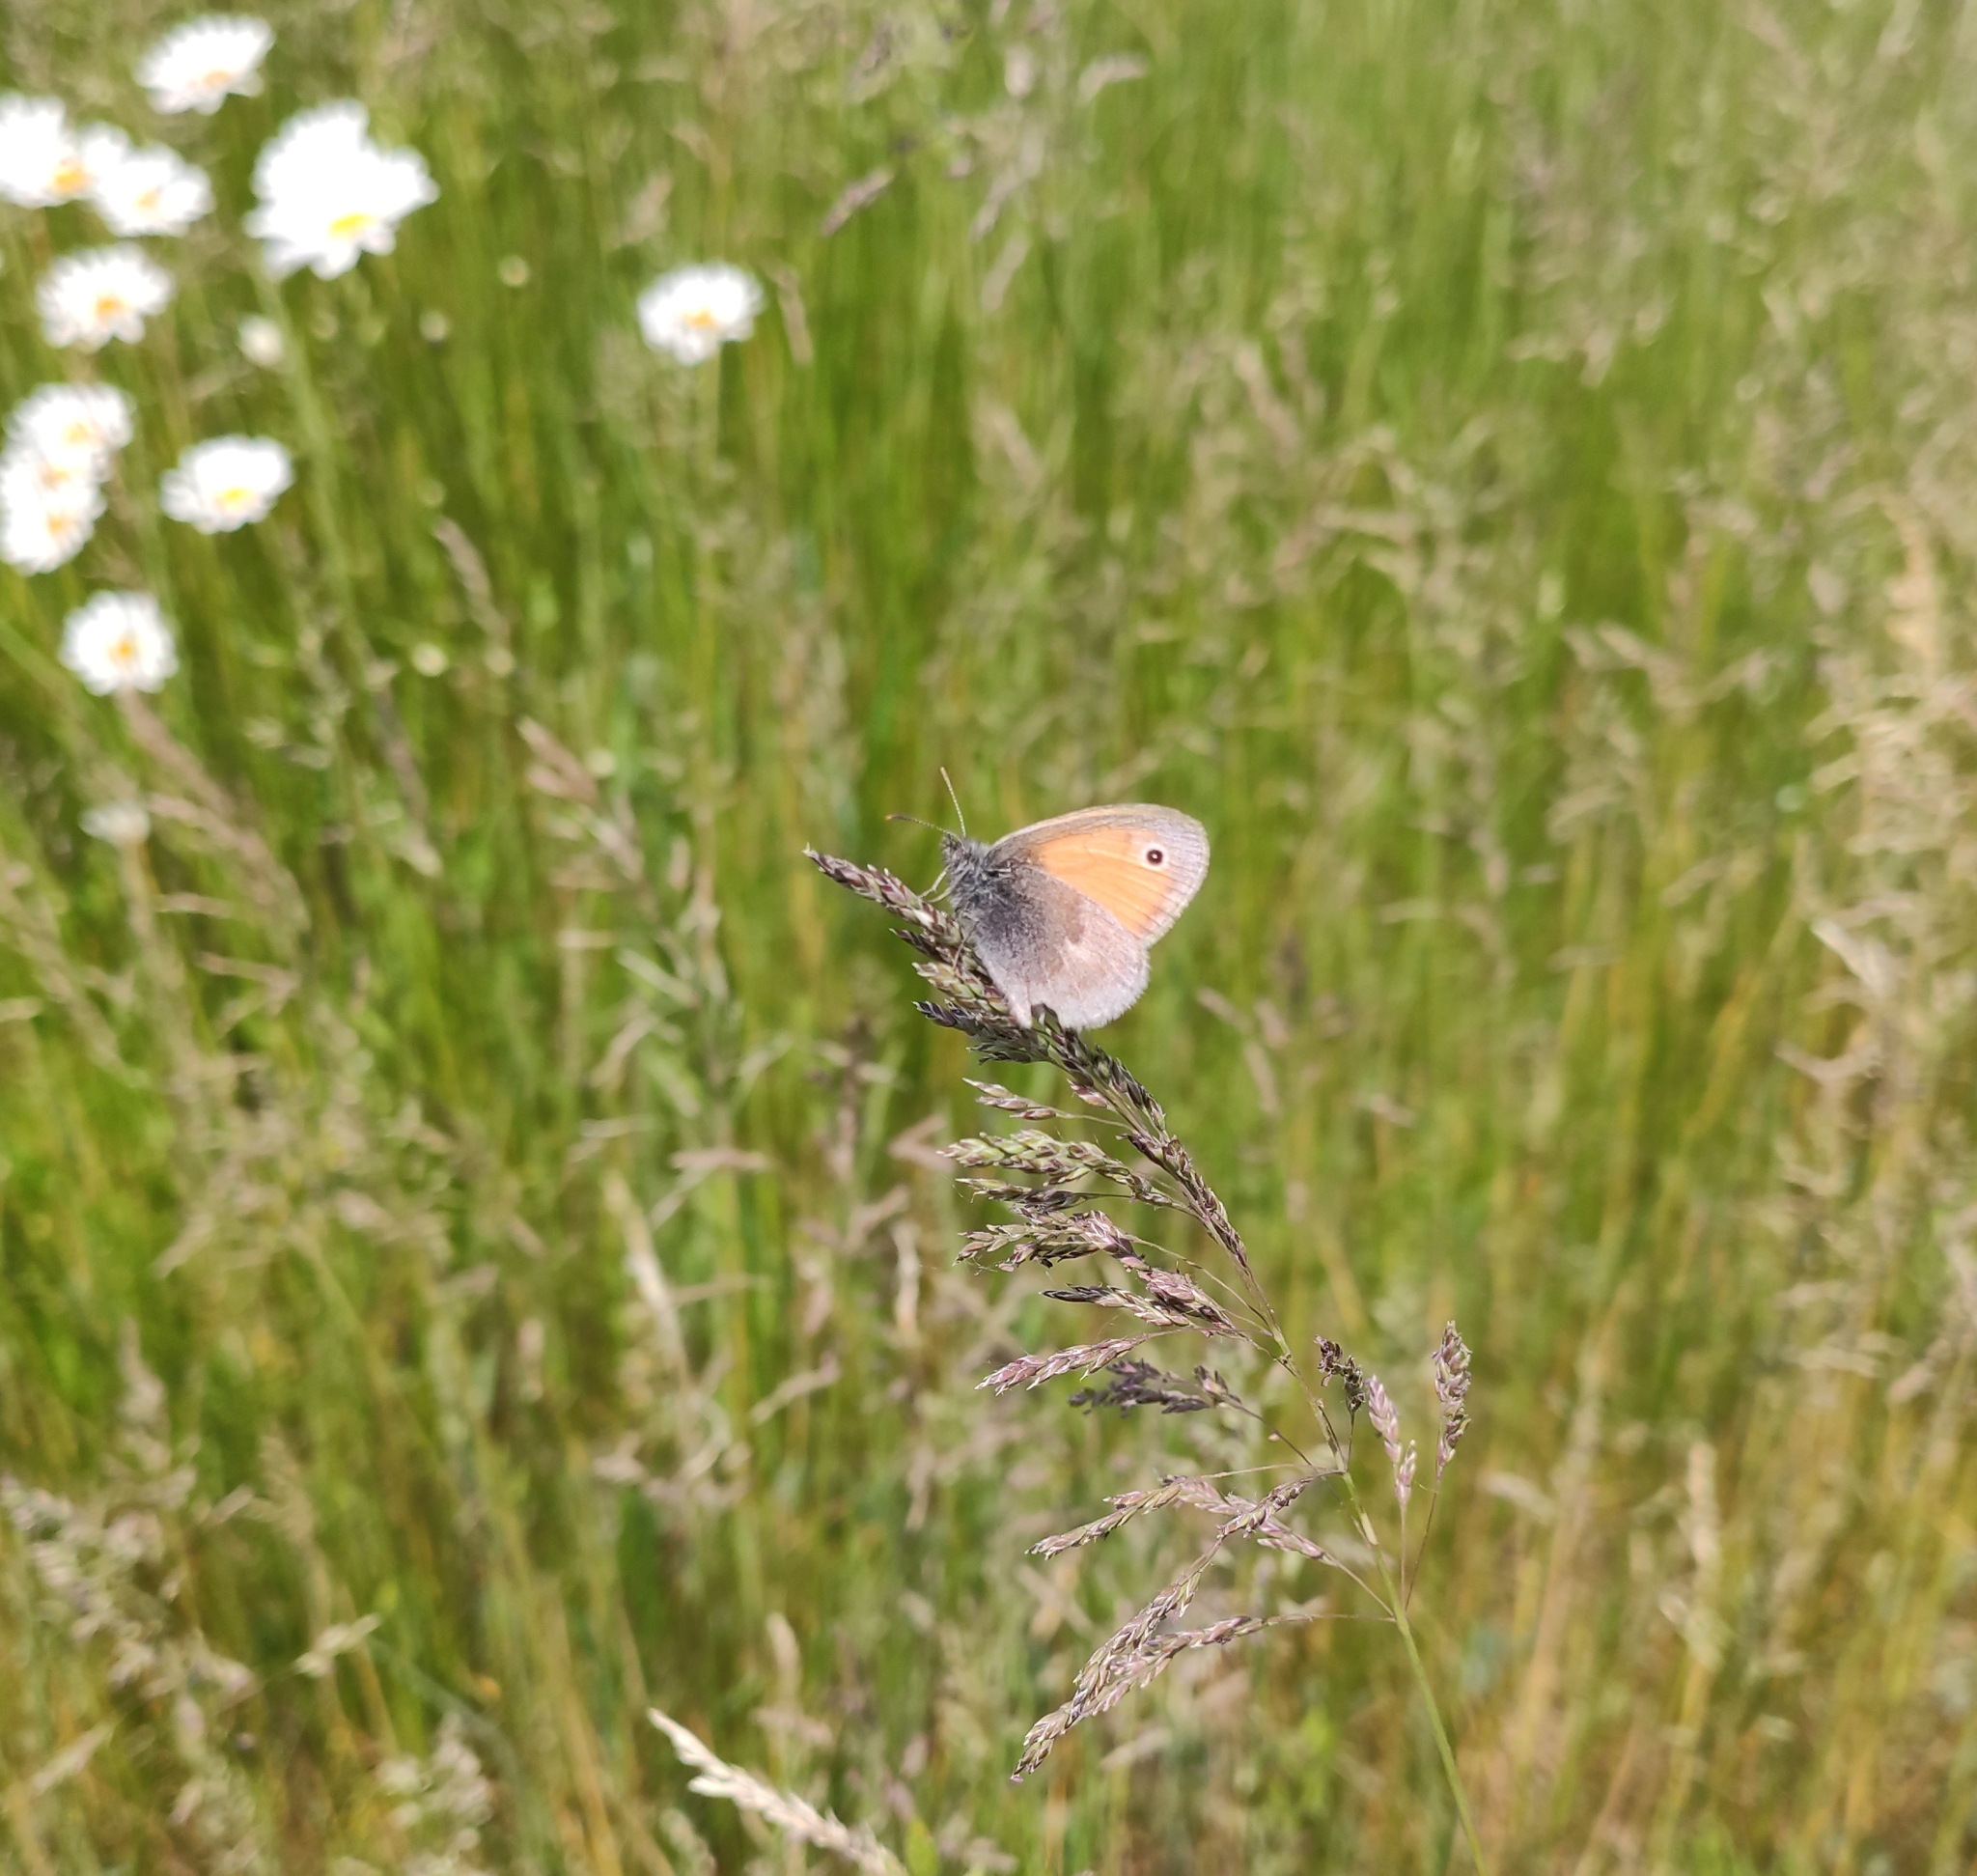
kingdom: Animalia
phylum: Arthropoda
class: Insecta
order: Lepidoptera
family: Nymphalidae
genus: Coenonympha
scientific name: Coenonympha pamphilus
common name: Small heath
